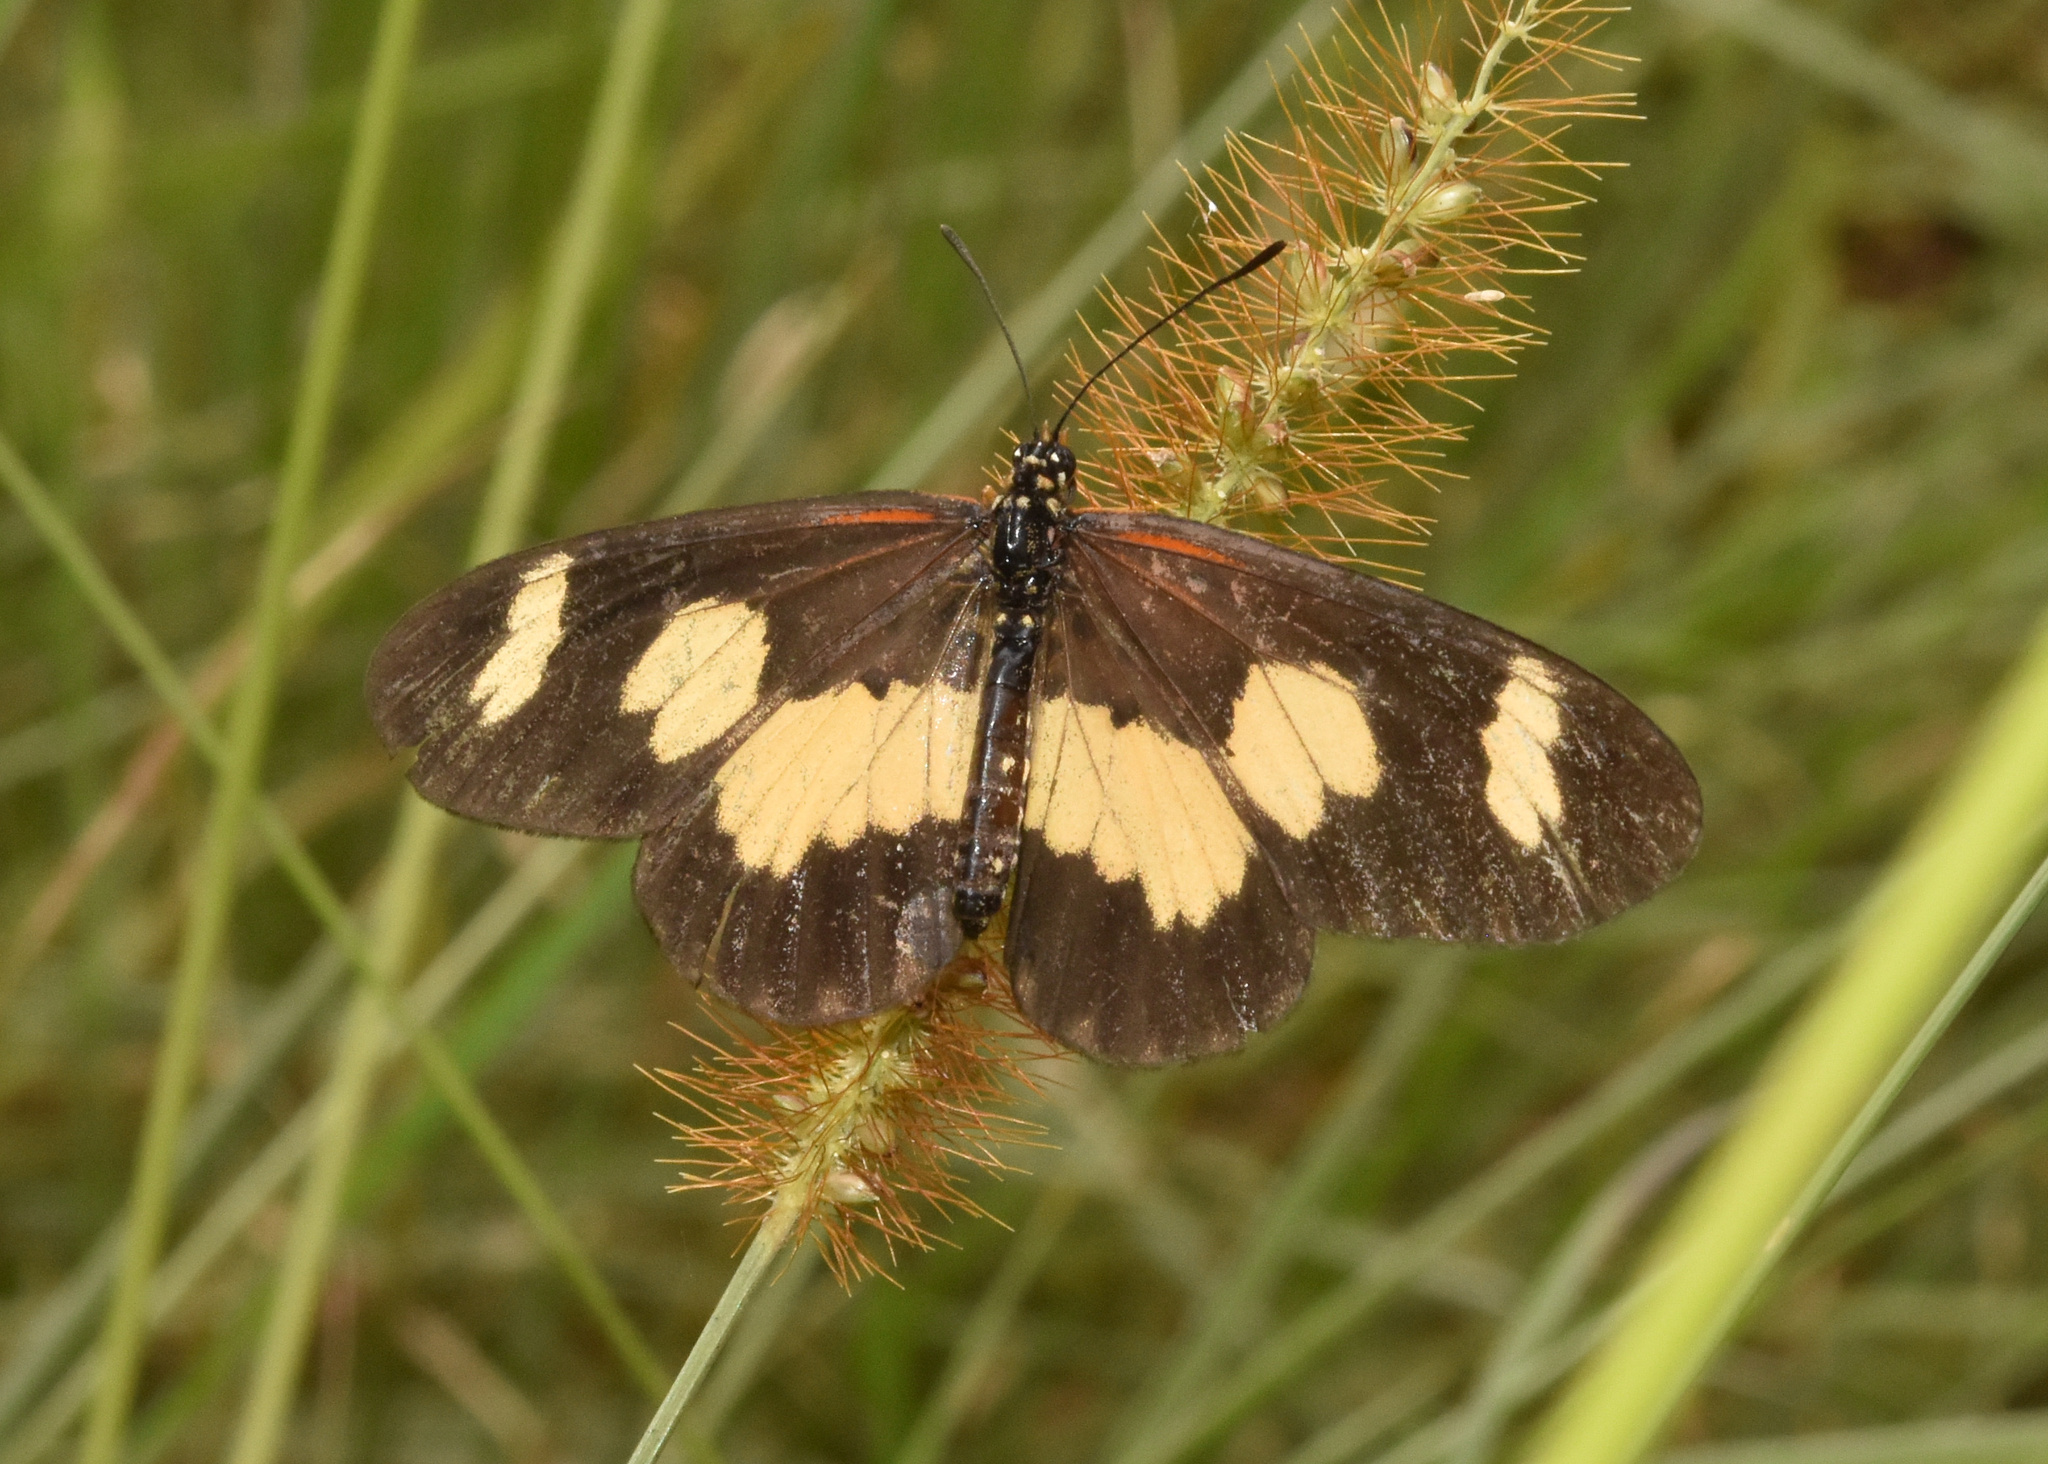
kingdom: Animalia
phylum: Arthropoda
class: Insecta
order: Lepidoptera
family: Nymphalidae
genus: Acraea
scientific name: Acraea cabira
